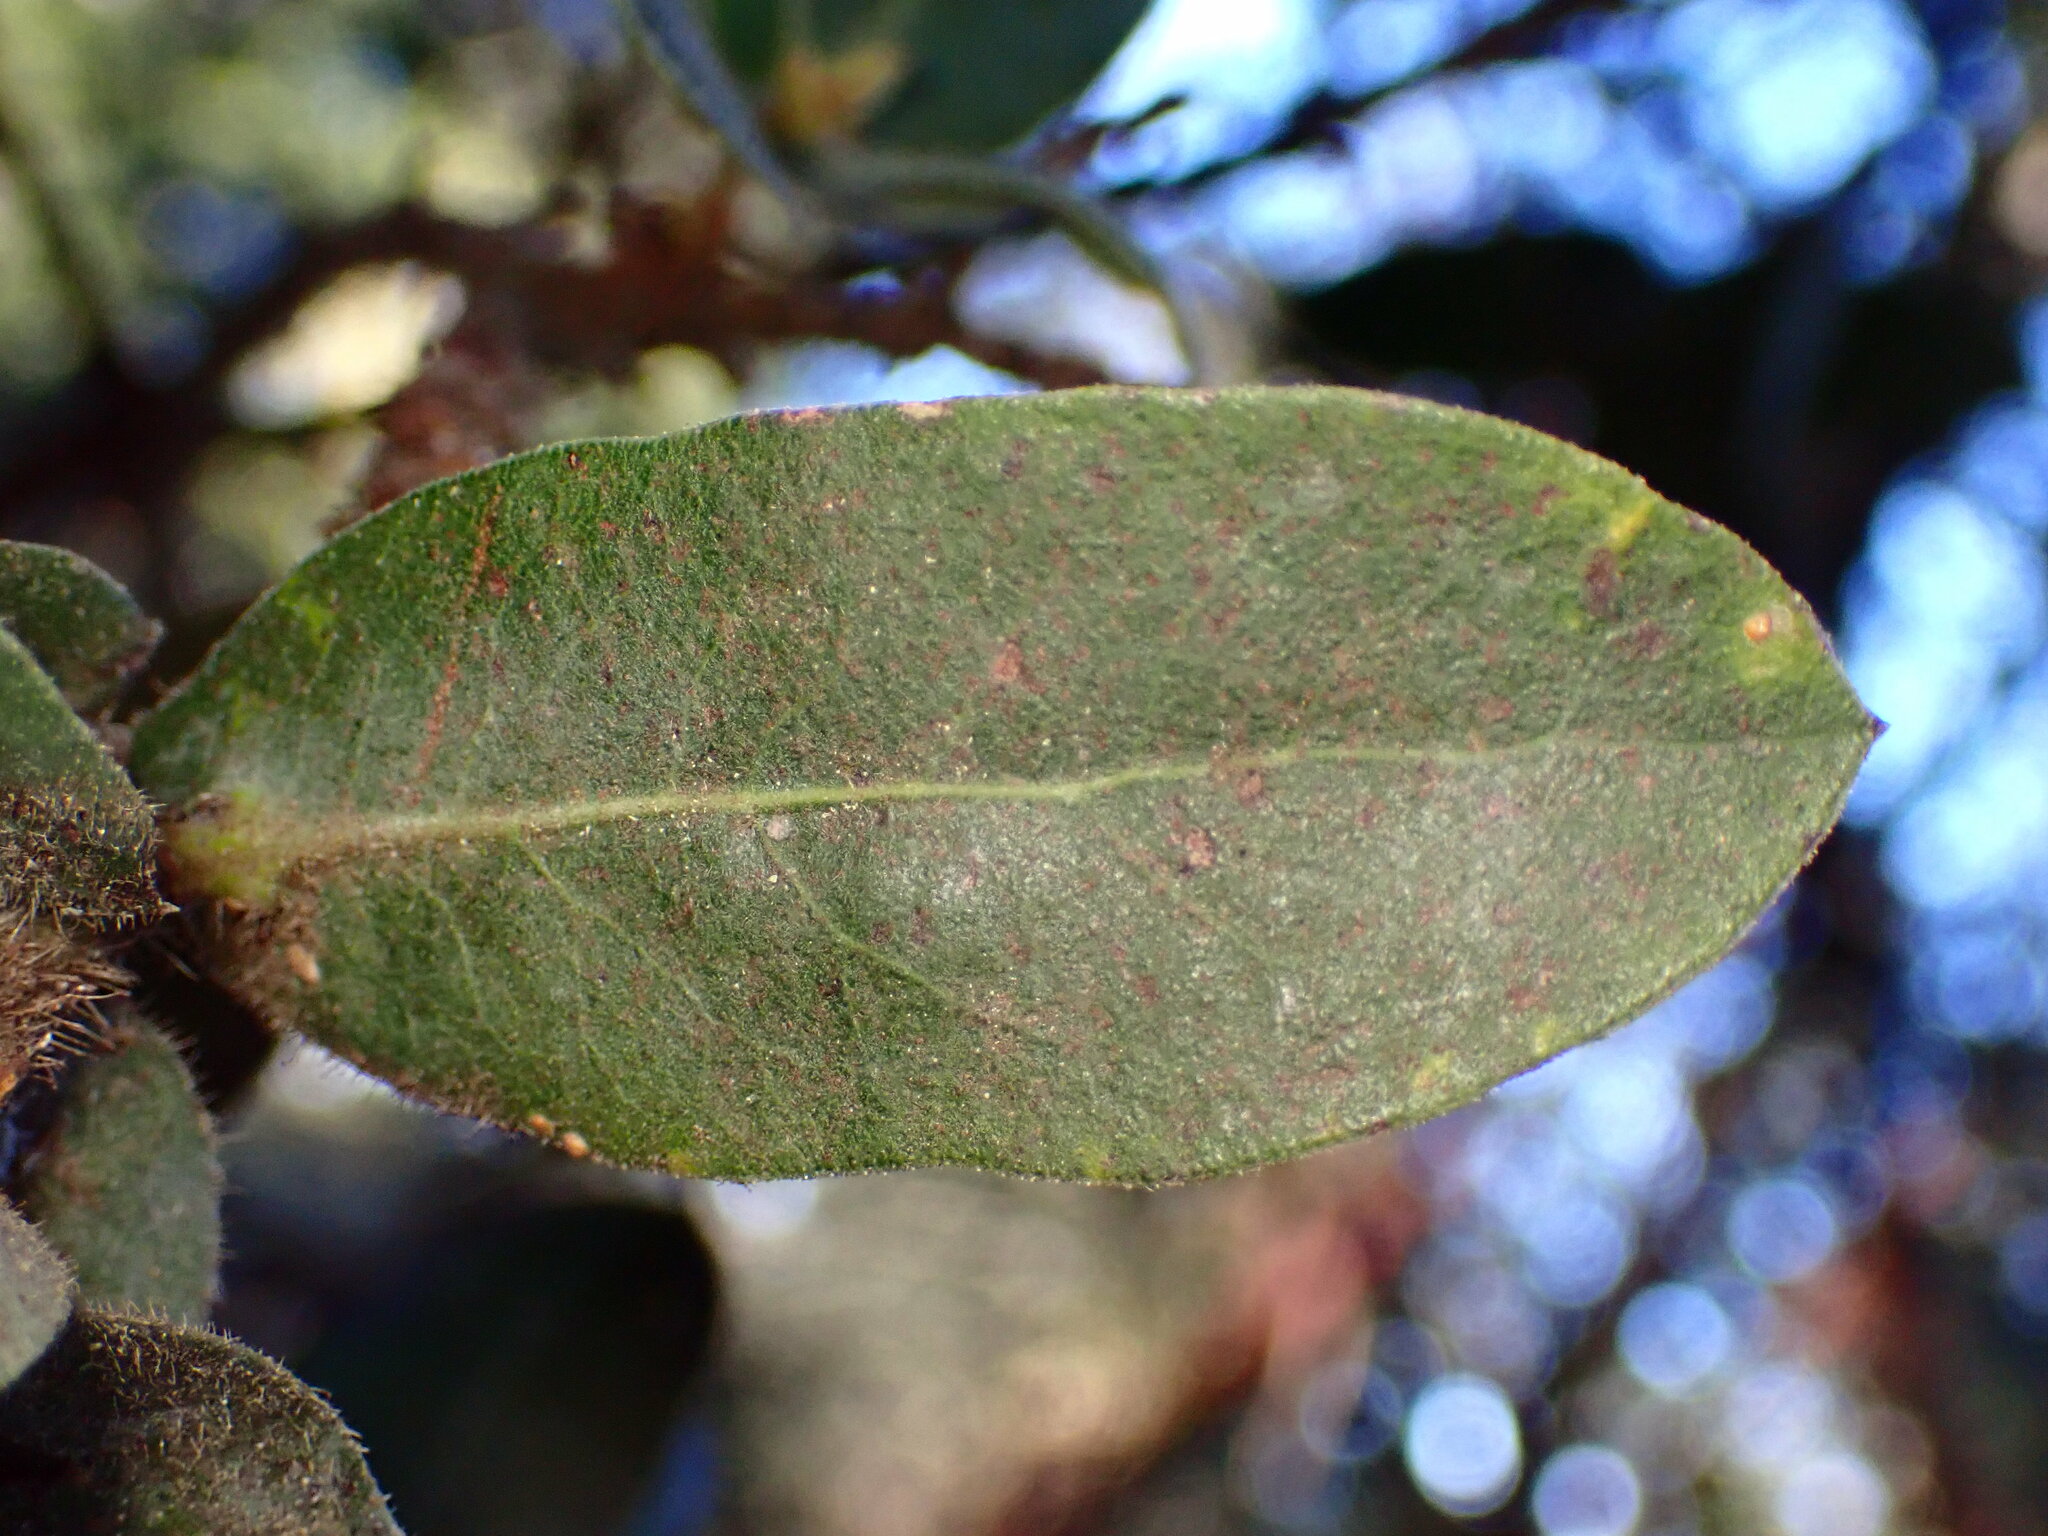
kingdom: Plantae
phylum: Tracheophyta
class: Magnoliopsida
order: Ericales
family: Ericaceae
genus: Arctostaphylos
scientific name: Arctostaphylos regismontana
